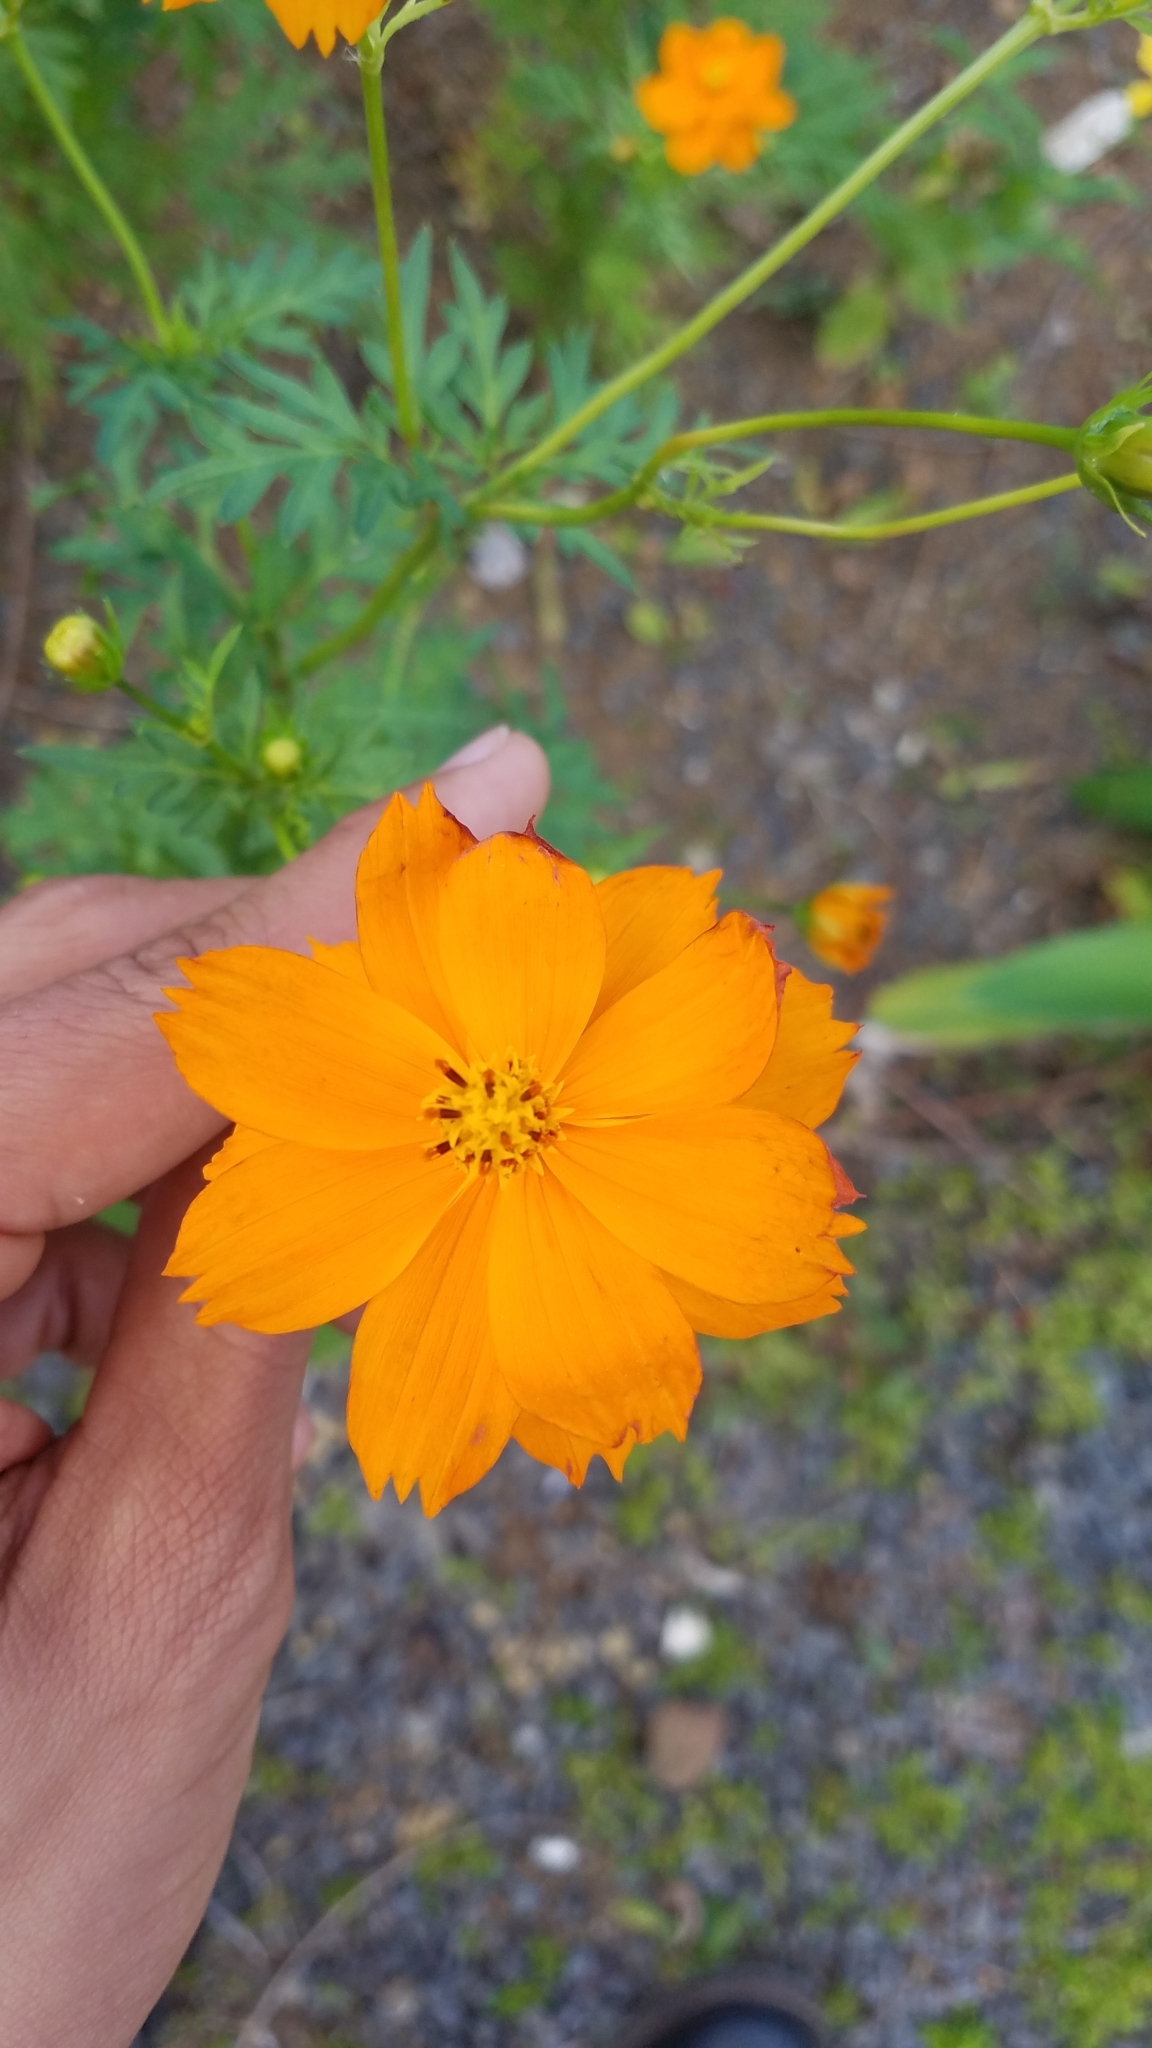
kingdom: Plantae
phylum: Tracheophyta
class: Magnoliopsida
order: Asterales
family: Asteraceae
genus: Cosmos
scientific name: Cosmos sulphureus
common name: Sulphur cosmos
